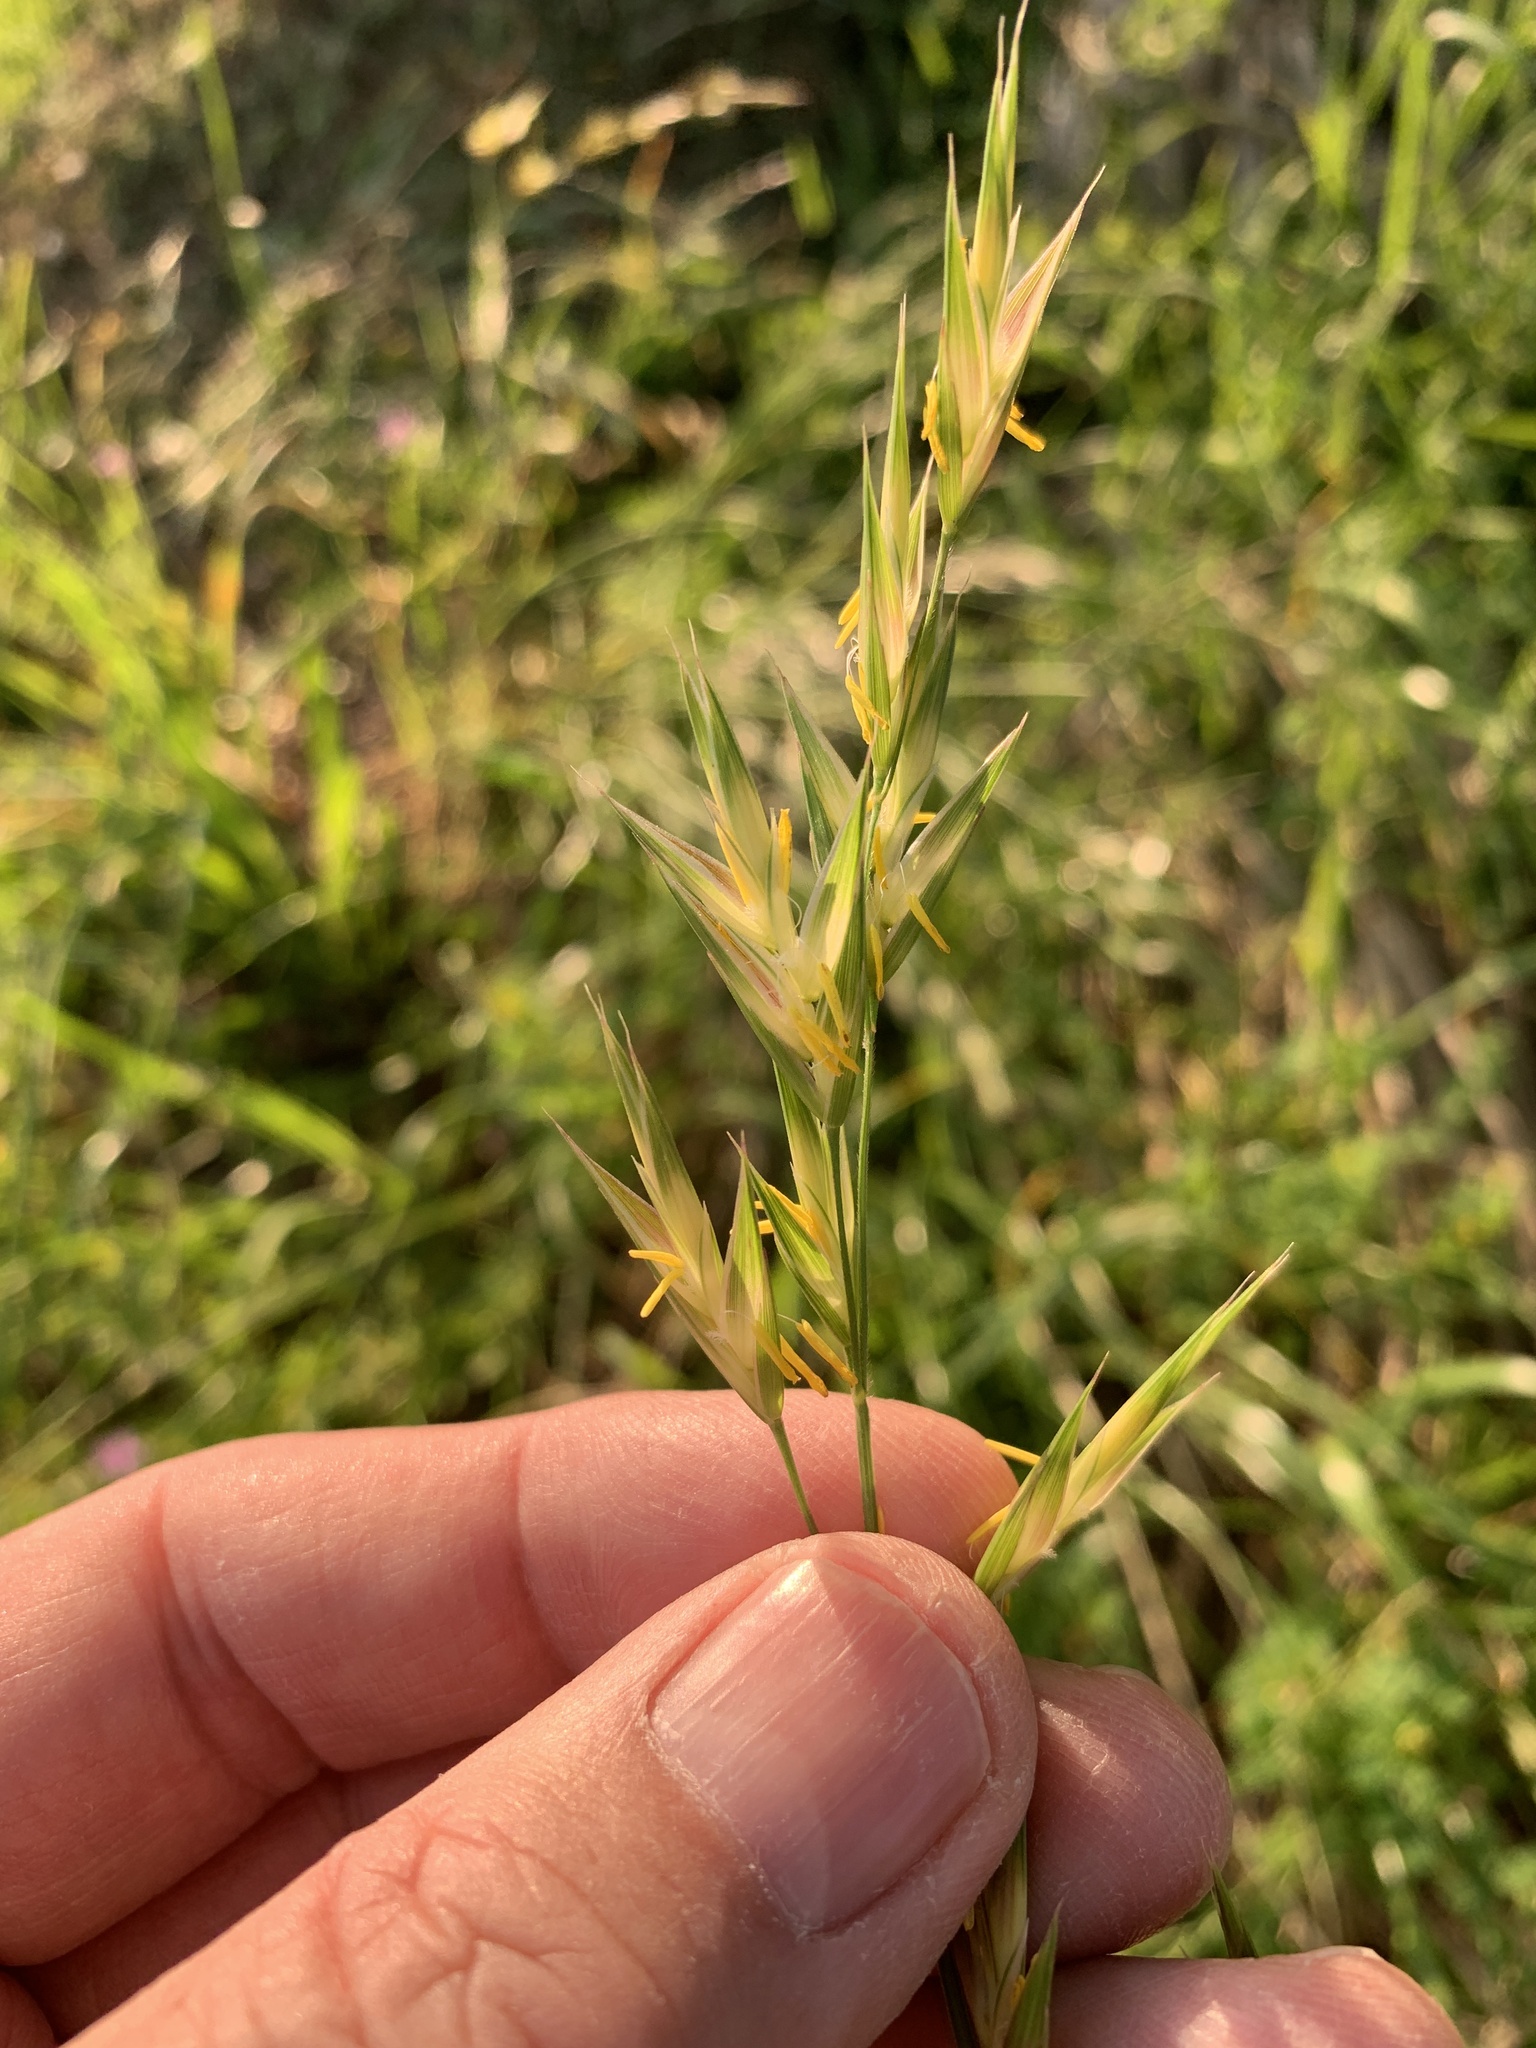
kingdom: Plantae
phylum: Tracheophyta
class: Liliopsida
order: Poales
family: Poaceae
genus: Bromus
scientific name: Bromus catharticus
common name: Rescuegrass
